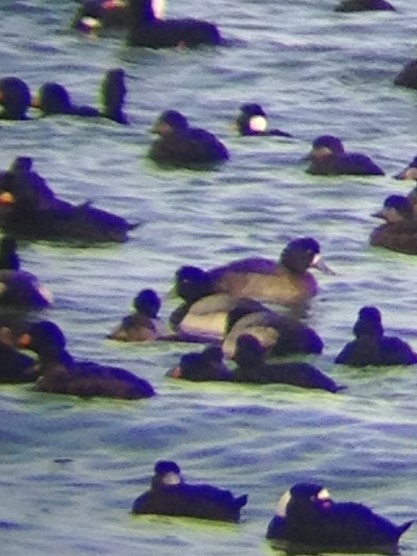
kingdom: Animalia
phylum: Chordata
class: Aves
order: Anseriformes
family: Anatidae
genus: Aythya
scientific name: Aythya marila
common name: Greater scaup
